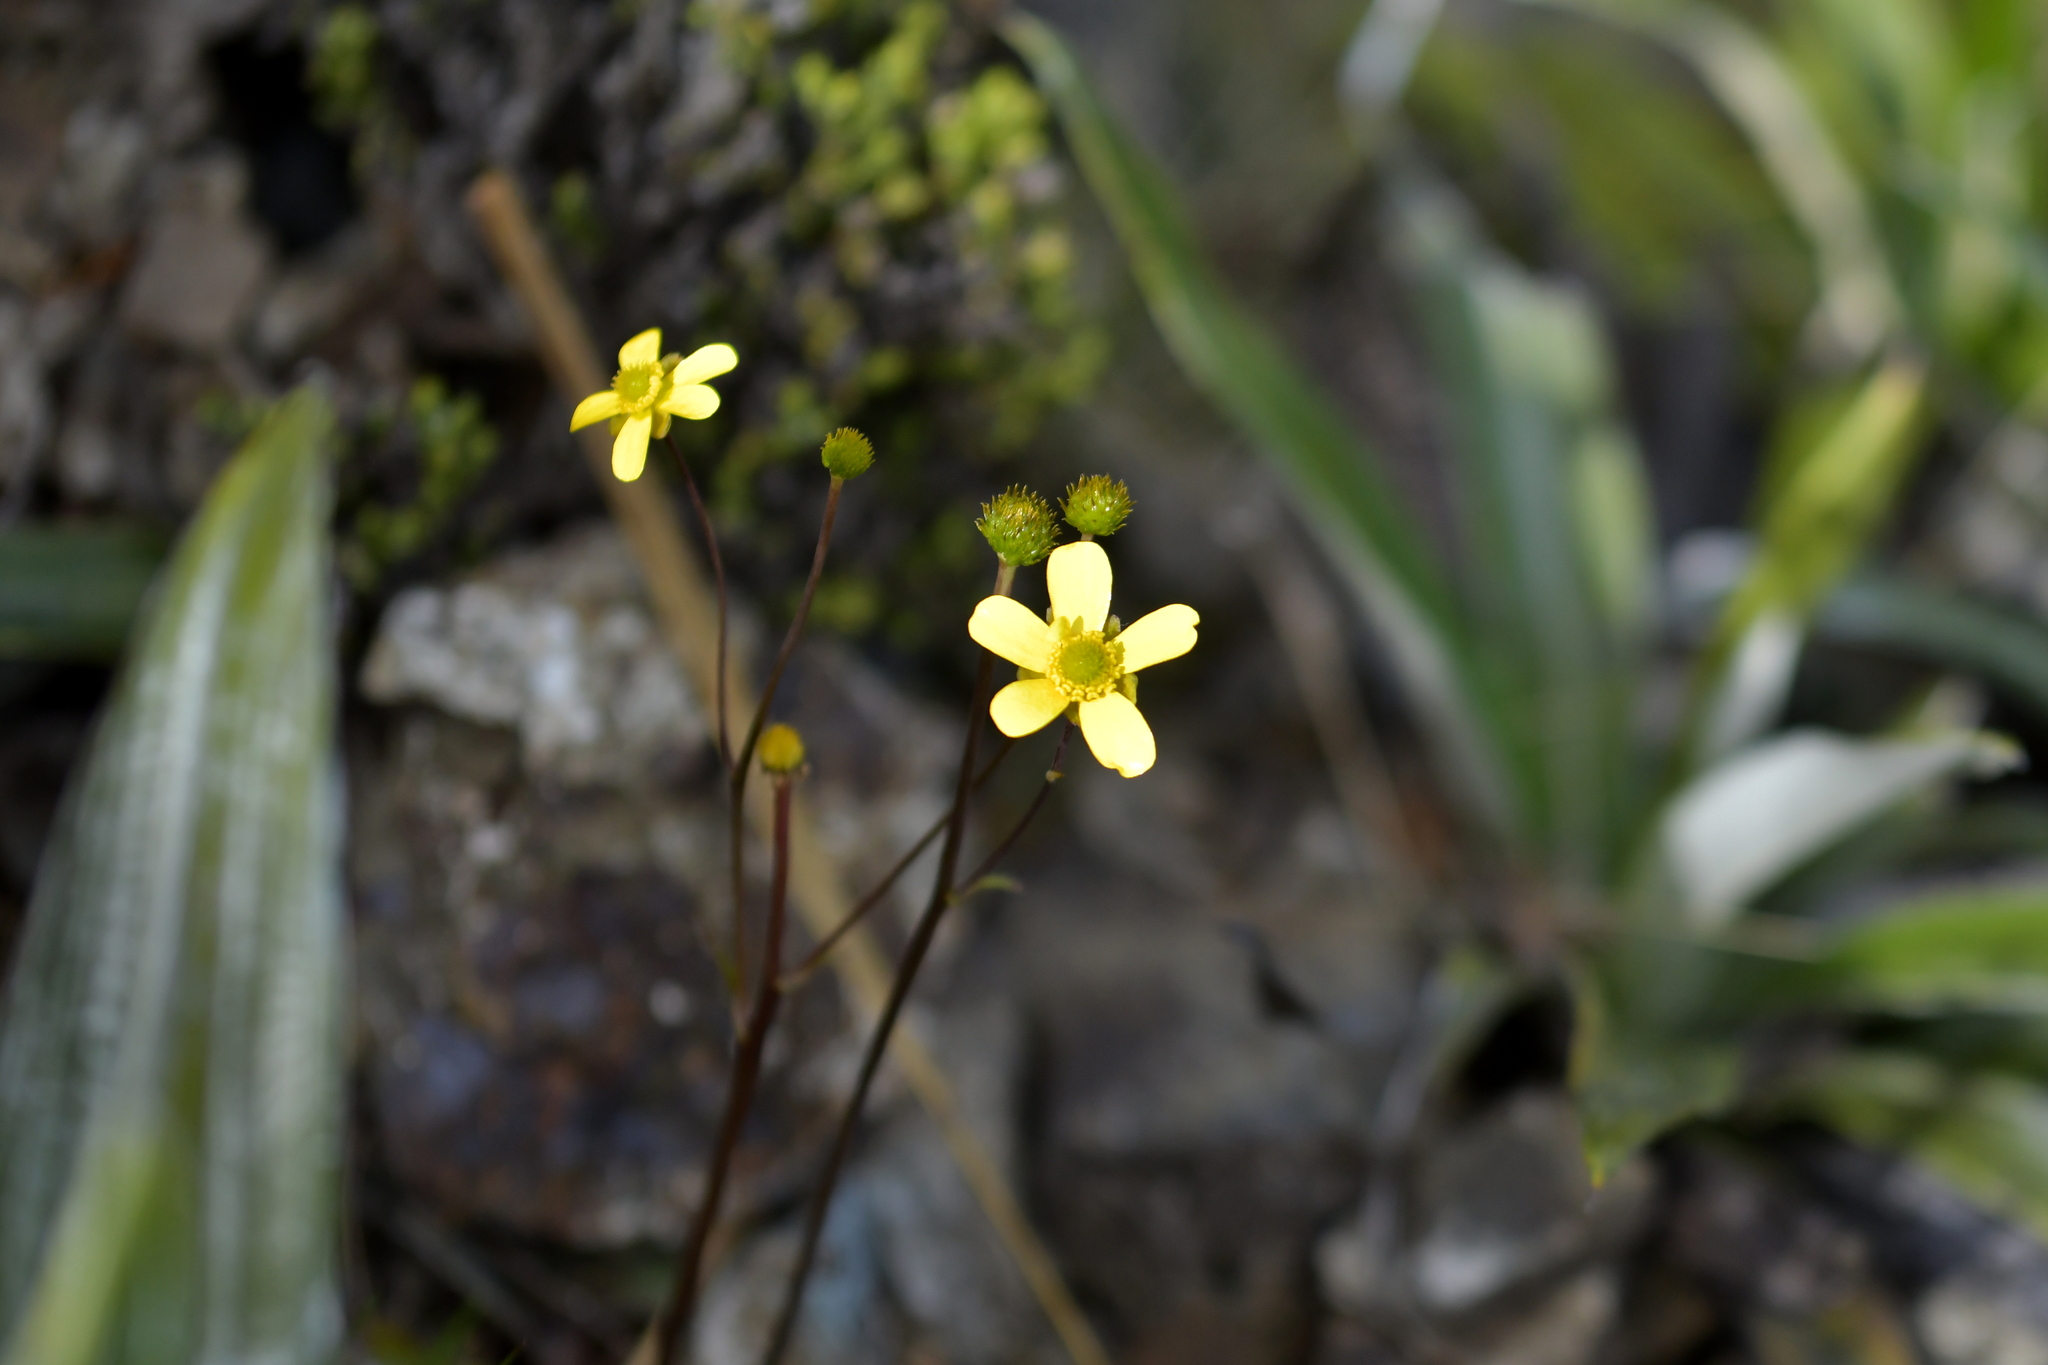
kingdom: Plantae
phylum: Tracheophyta
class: Magnoliopsida
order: Ranunculales
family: Ranunculaceae
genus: Ranunculus
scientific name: Ranunculus insignis
